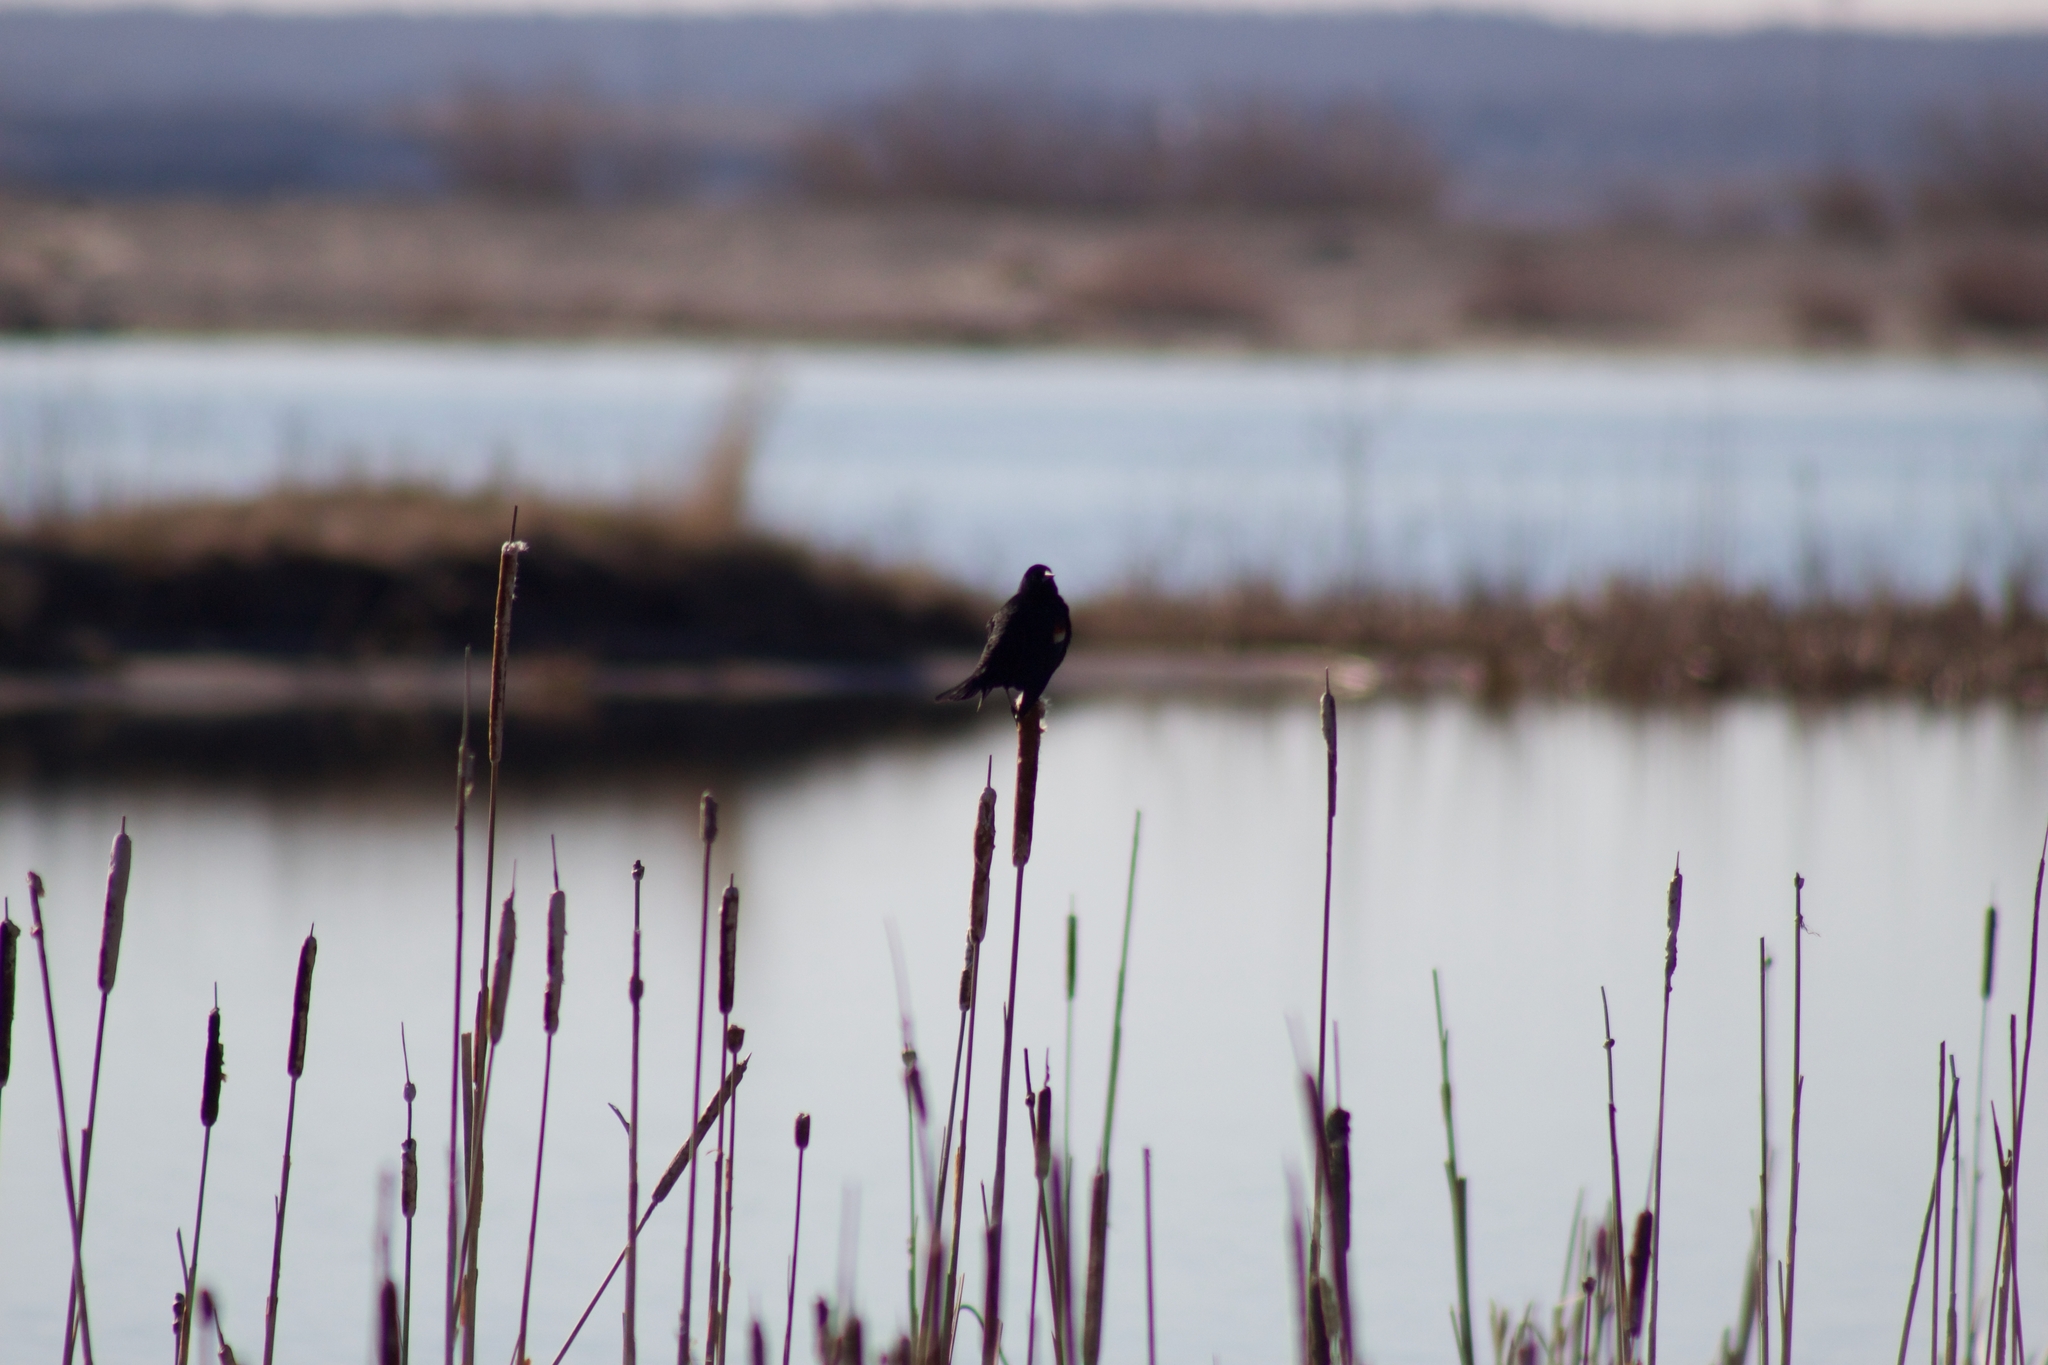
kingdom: Animalia
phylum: Chordata
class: Aves
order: Passeriformes
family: Icteridae
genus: Agelaius
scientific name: Agelaius phoeniceus
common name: Red-winged blackbird
